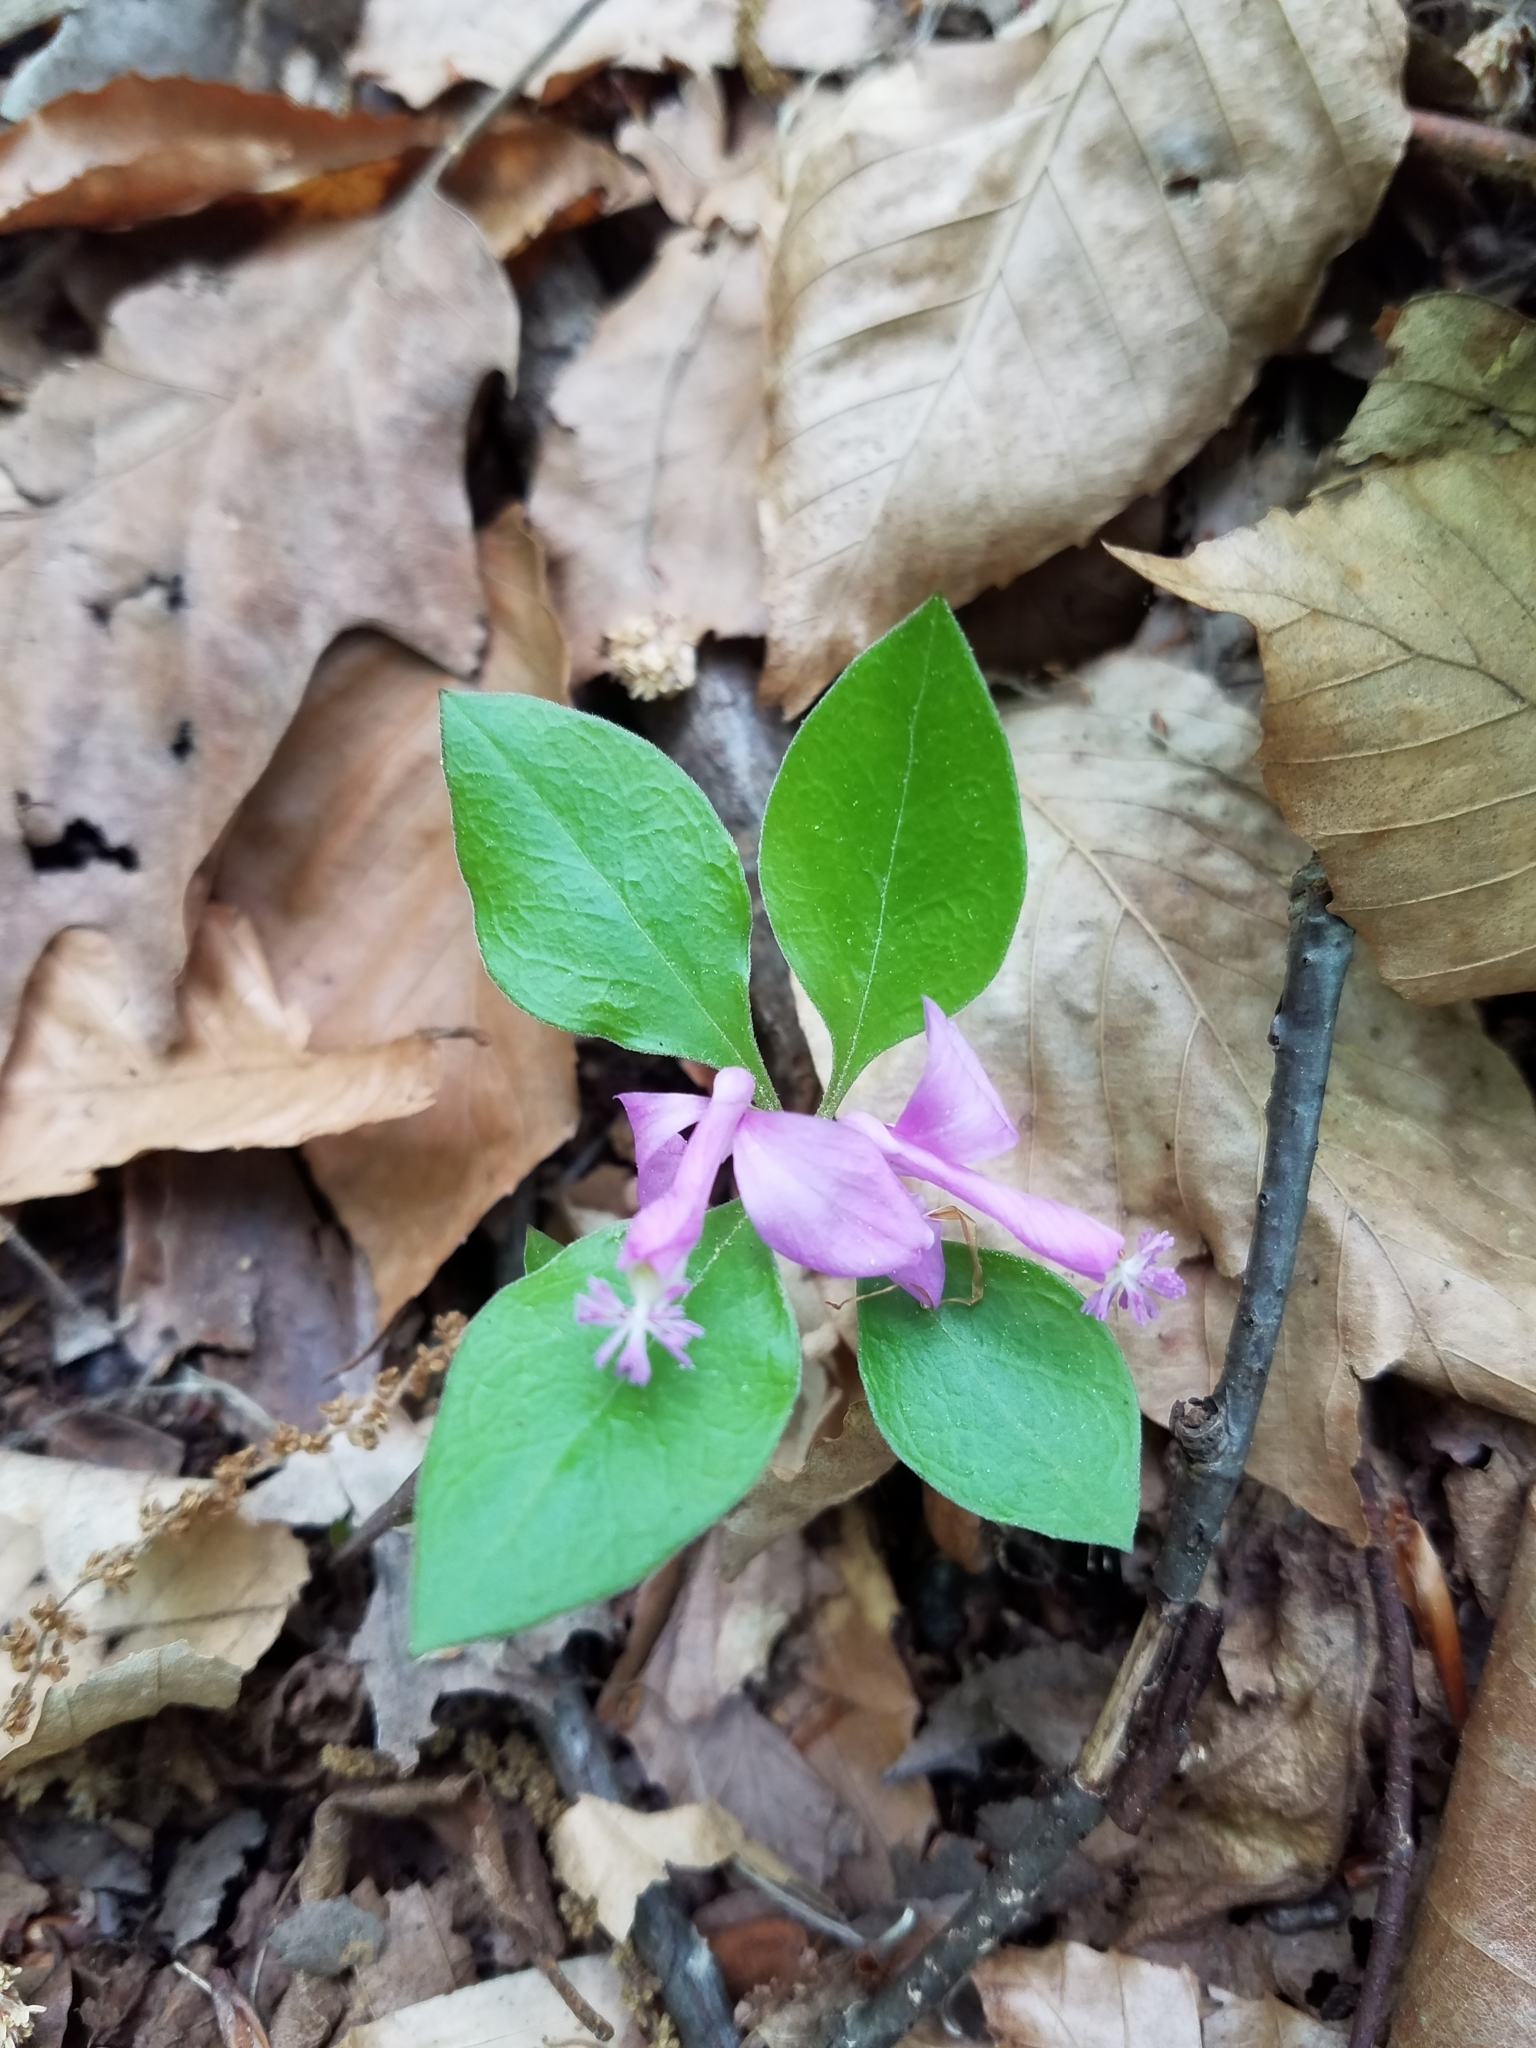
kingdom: Plantae
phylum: Tracheophyta
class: Magnoliopsida
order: Fabales
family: Polygalaceae
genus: Polygaloides
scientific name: Polygaloides paucifolia
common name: Bird-on-the-wing
